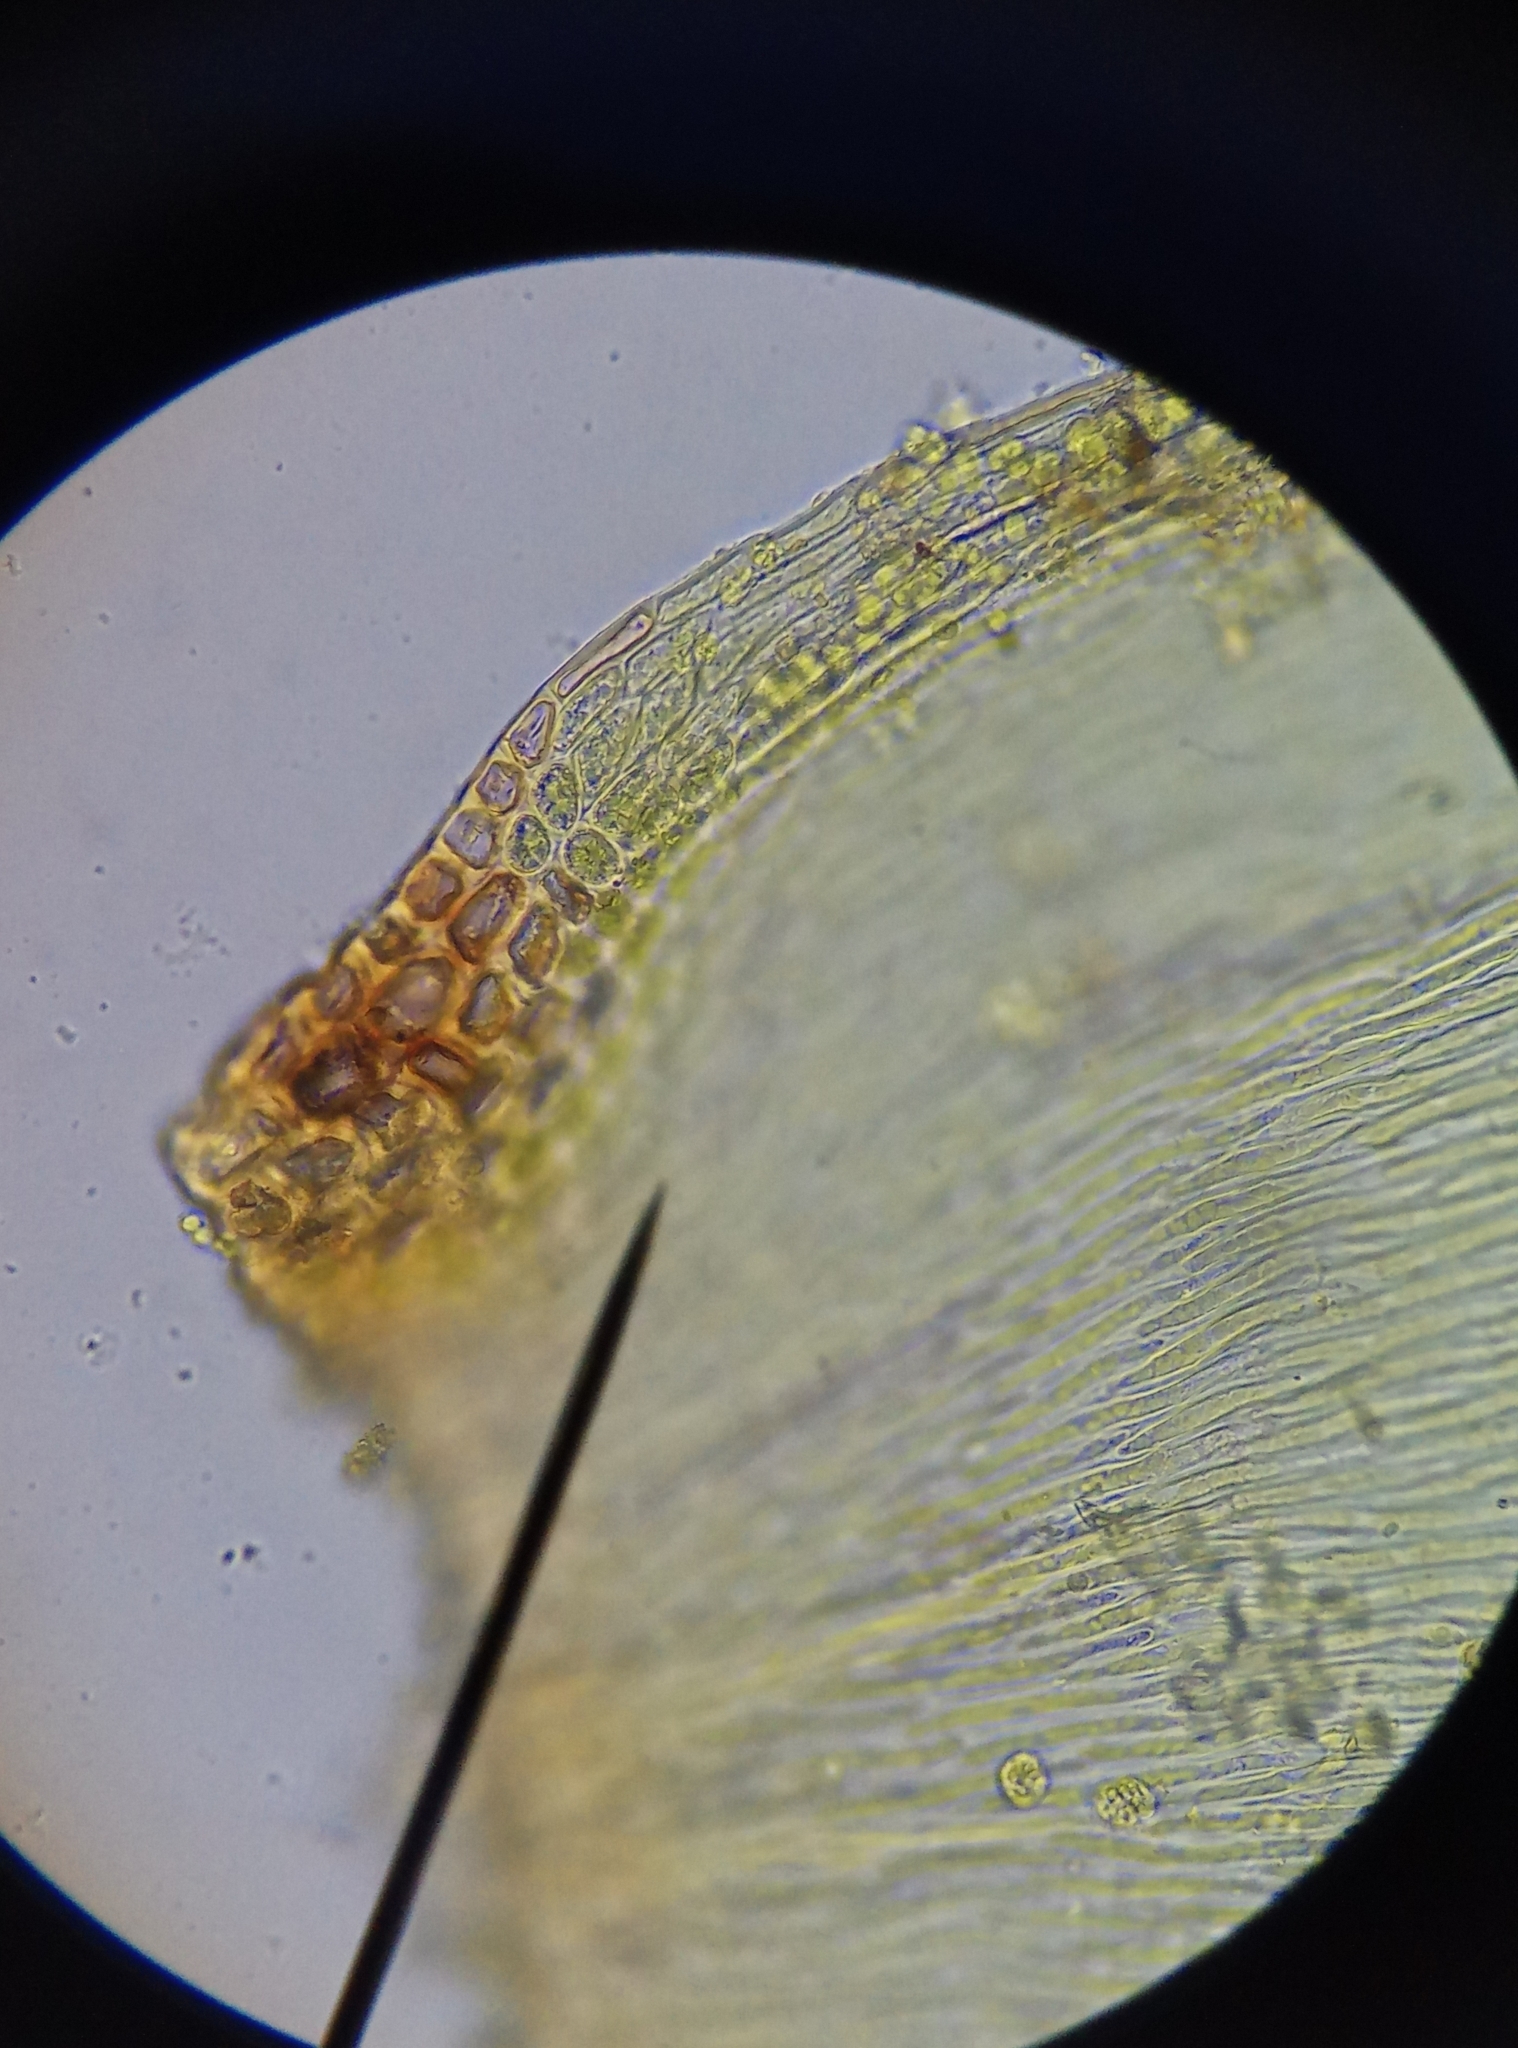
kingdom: Plantae
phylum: Bryophyta
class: Bryopsida
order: Hypnales
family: Hypnaceae
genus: Hypnum
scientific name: Hypnum cupressiforme
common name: Cypress-leaved plait-moss
